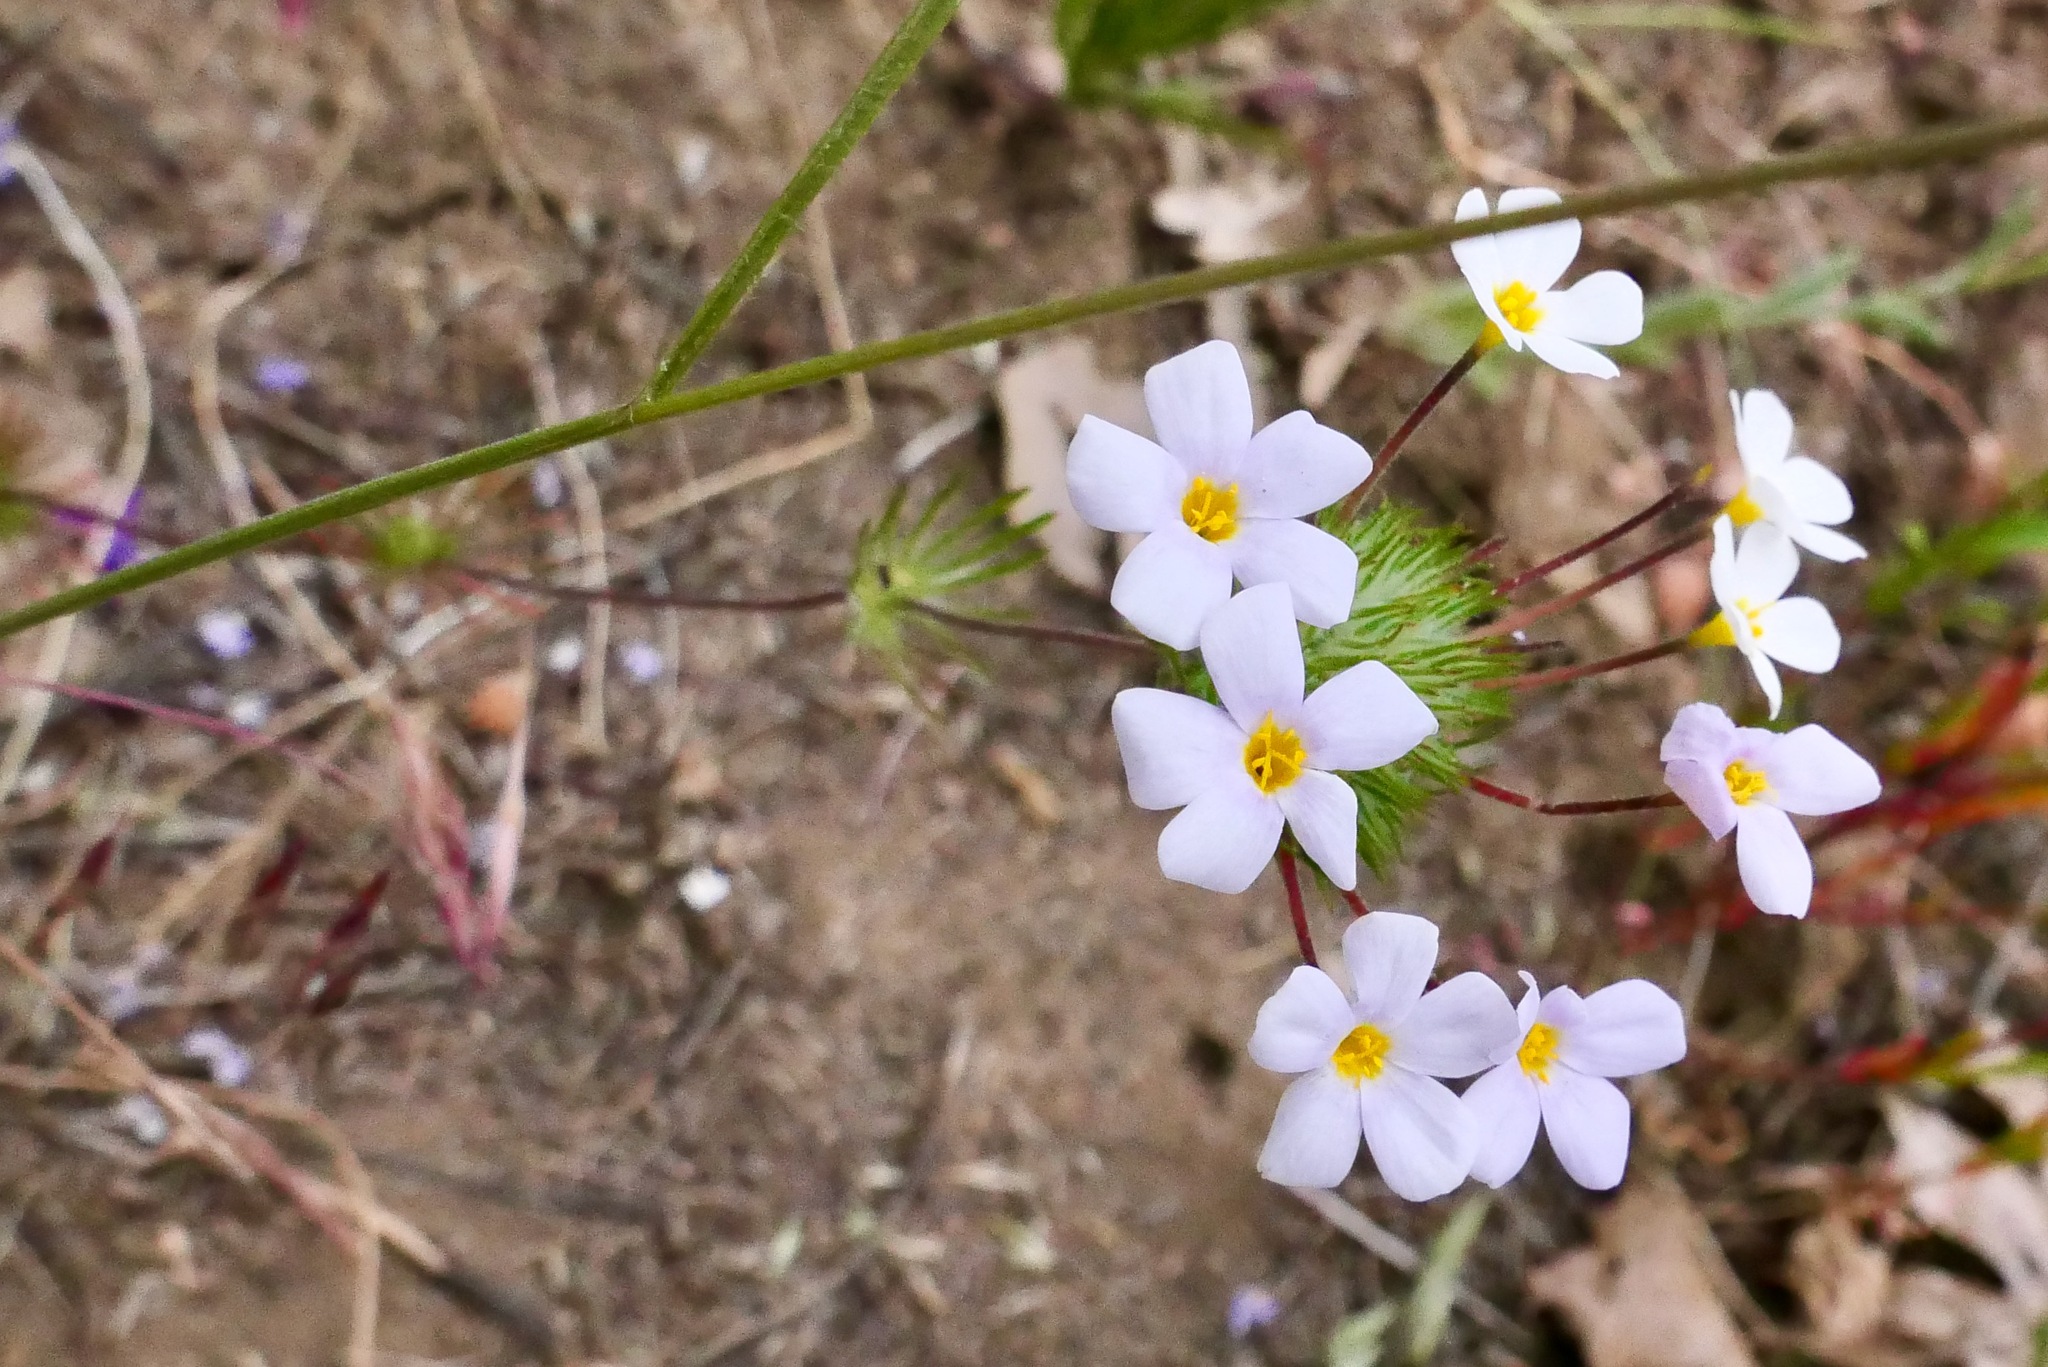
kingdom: Plantae
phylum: Tracheophyta
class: Magnoliopsida
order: Ericales
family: Polemoniaceae
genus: Leptosiphon
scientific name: Leptosiphon montanus
